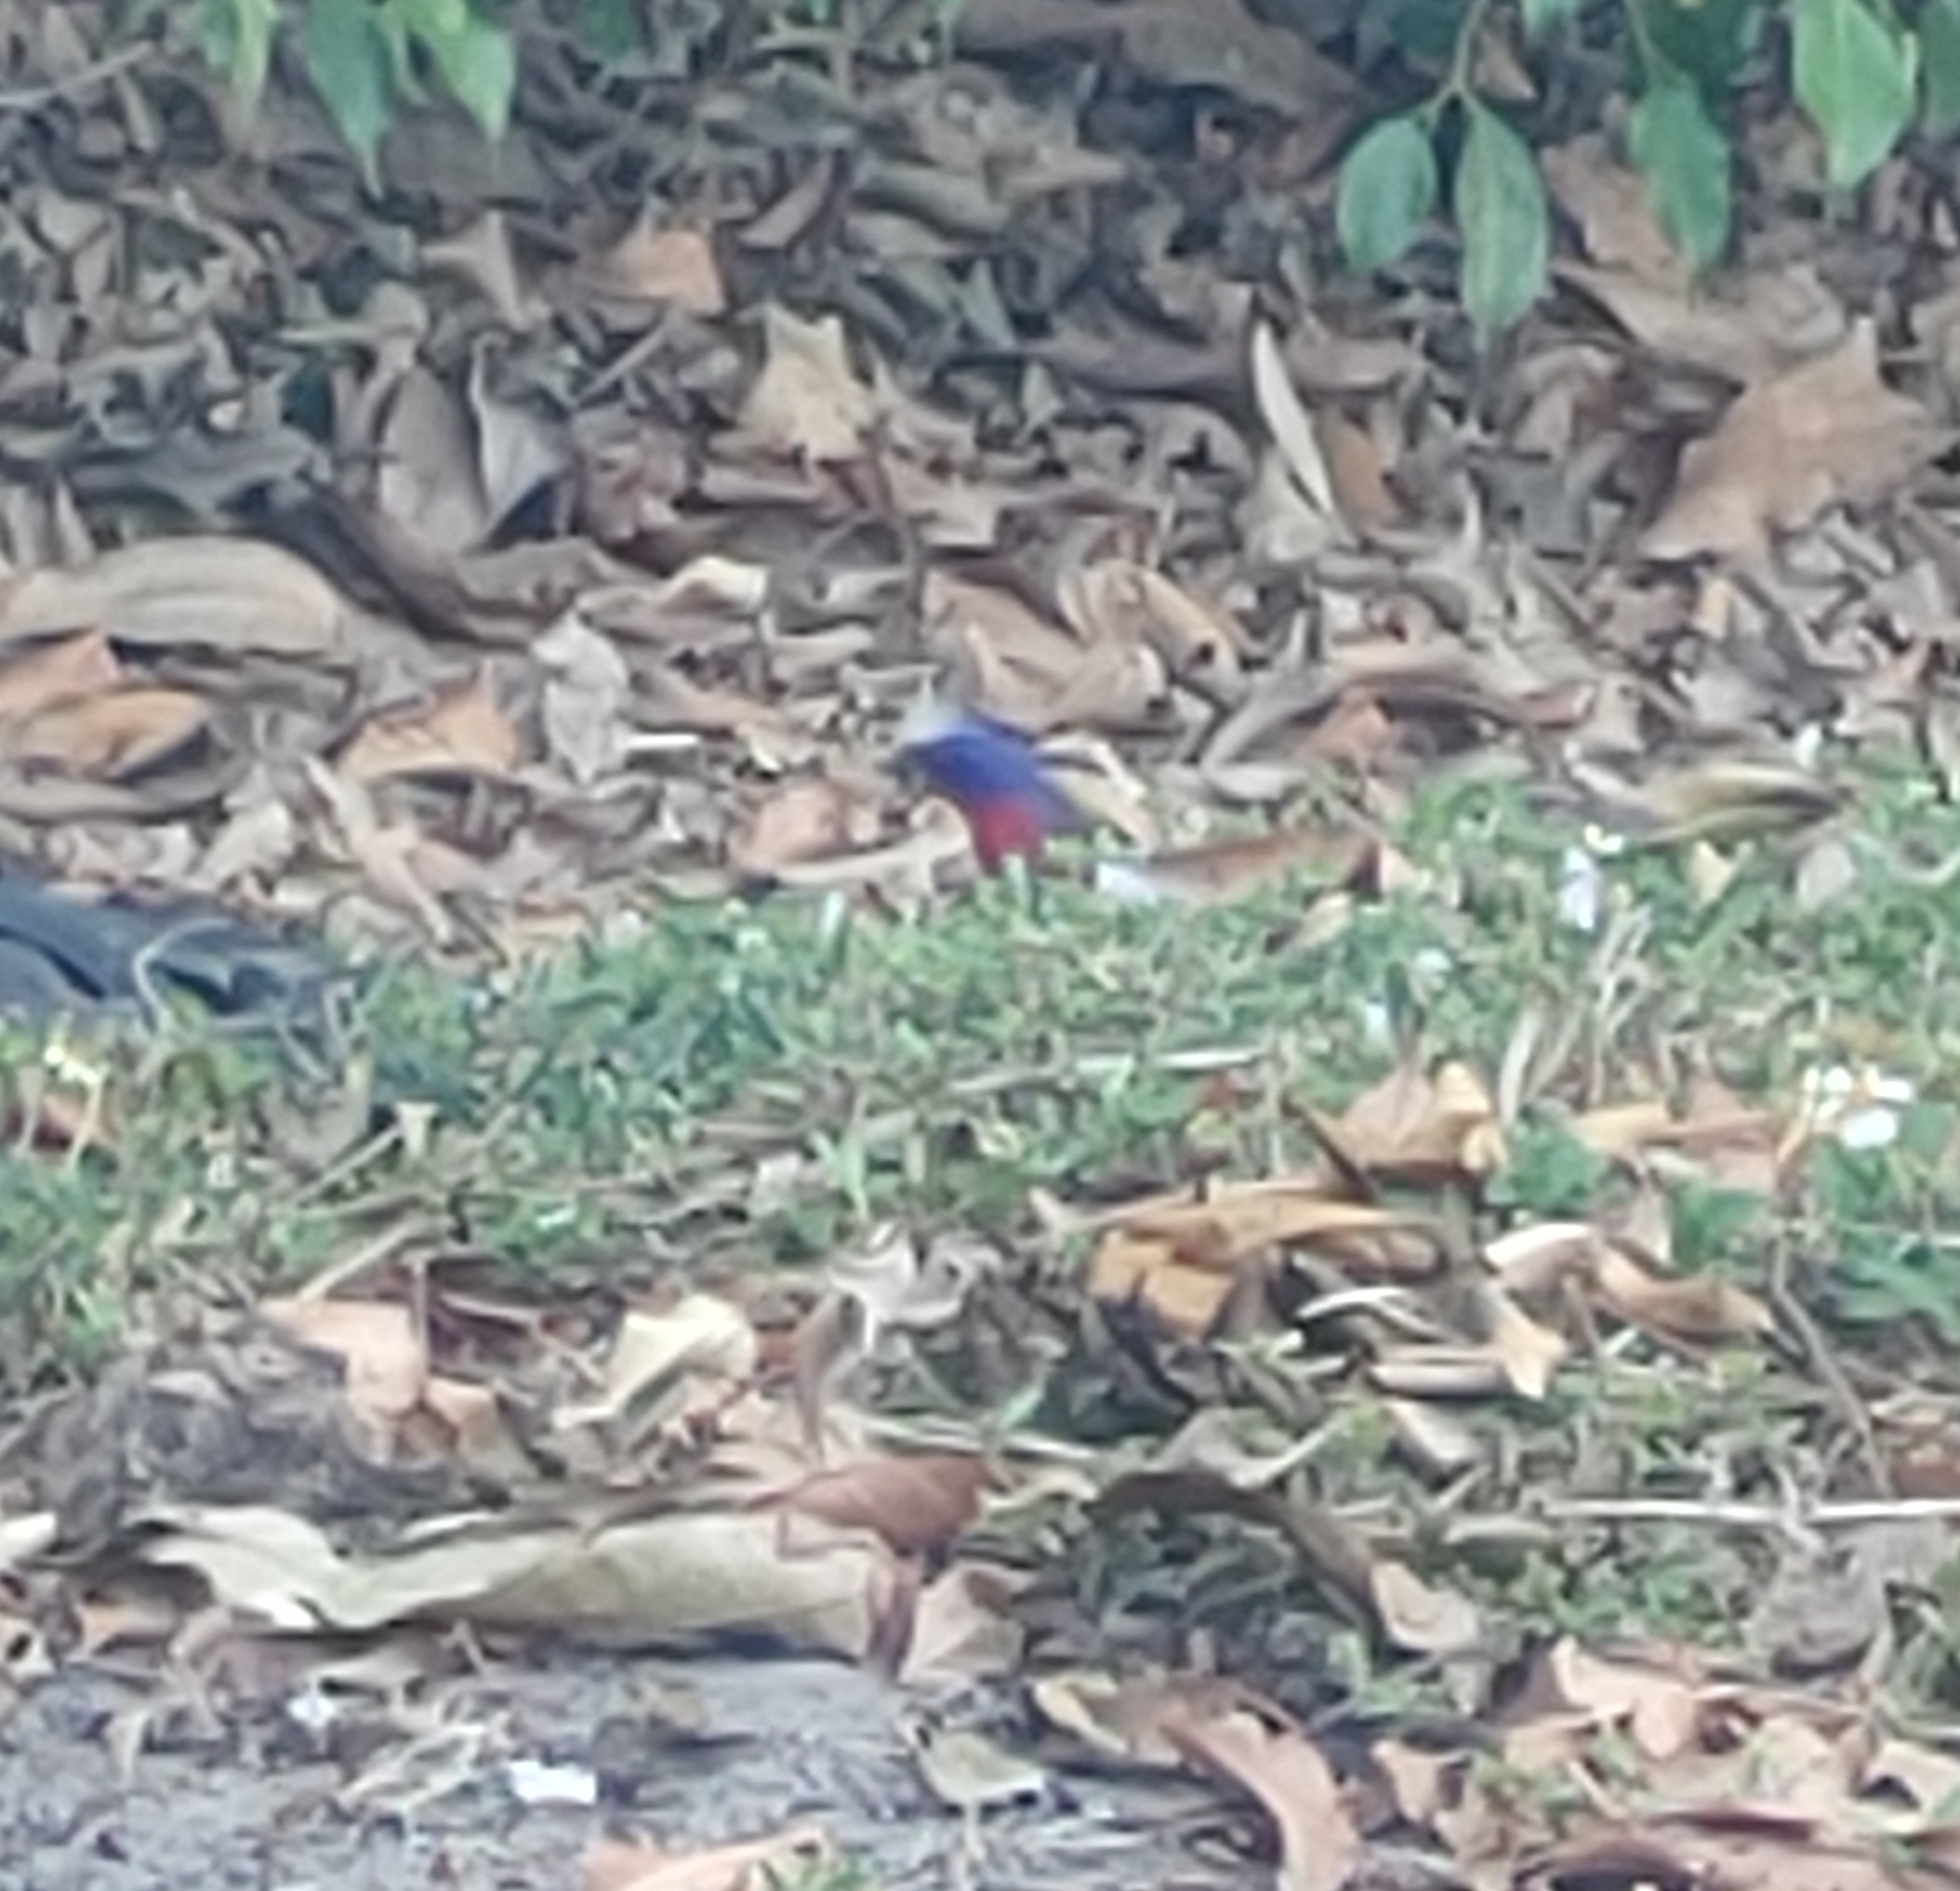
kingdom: Animalia
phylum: Chordata
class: Aves
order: Passeriformes
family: Cardinalidae
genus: Passerina
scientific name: Passerina ciris
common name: Painted bunting
